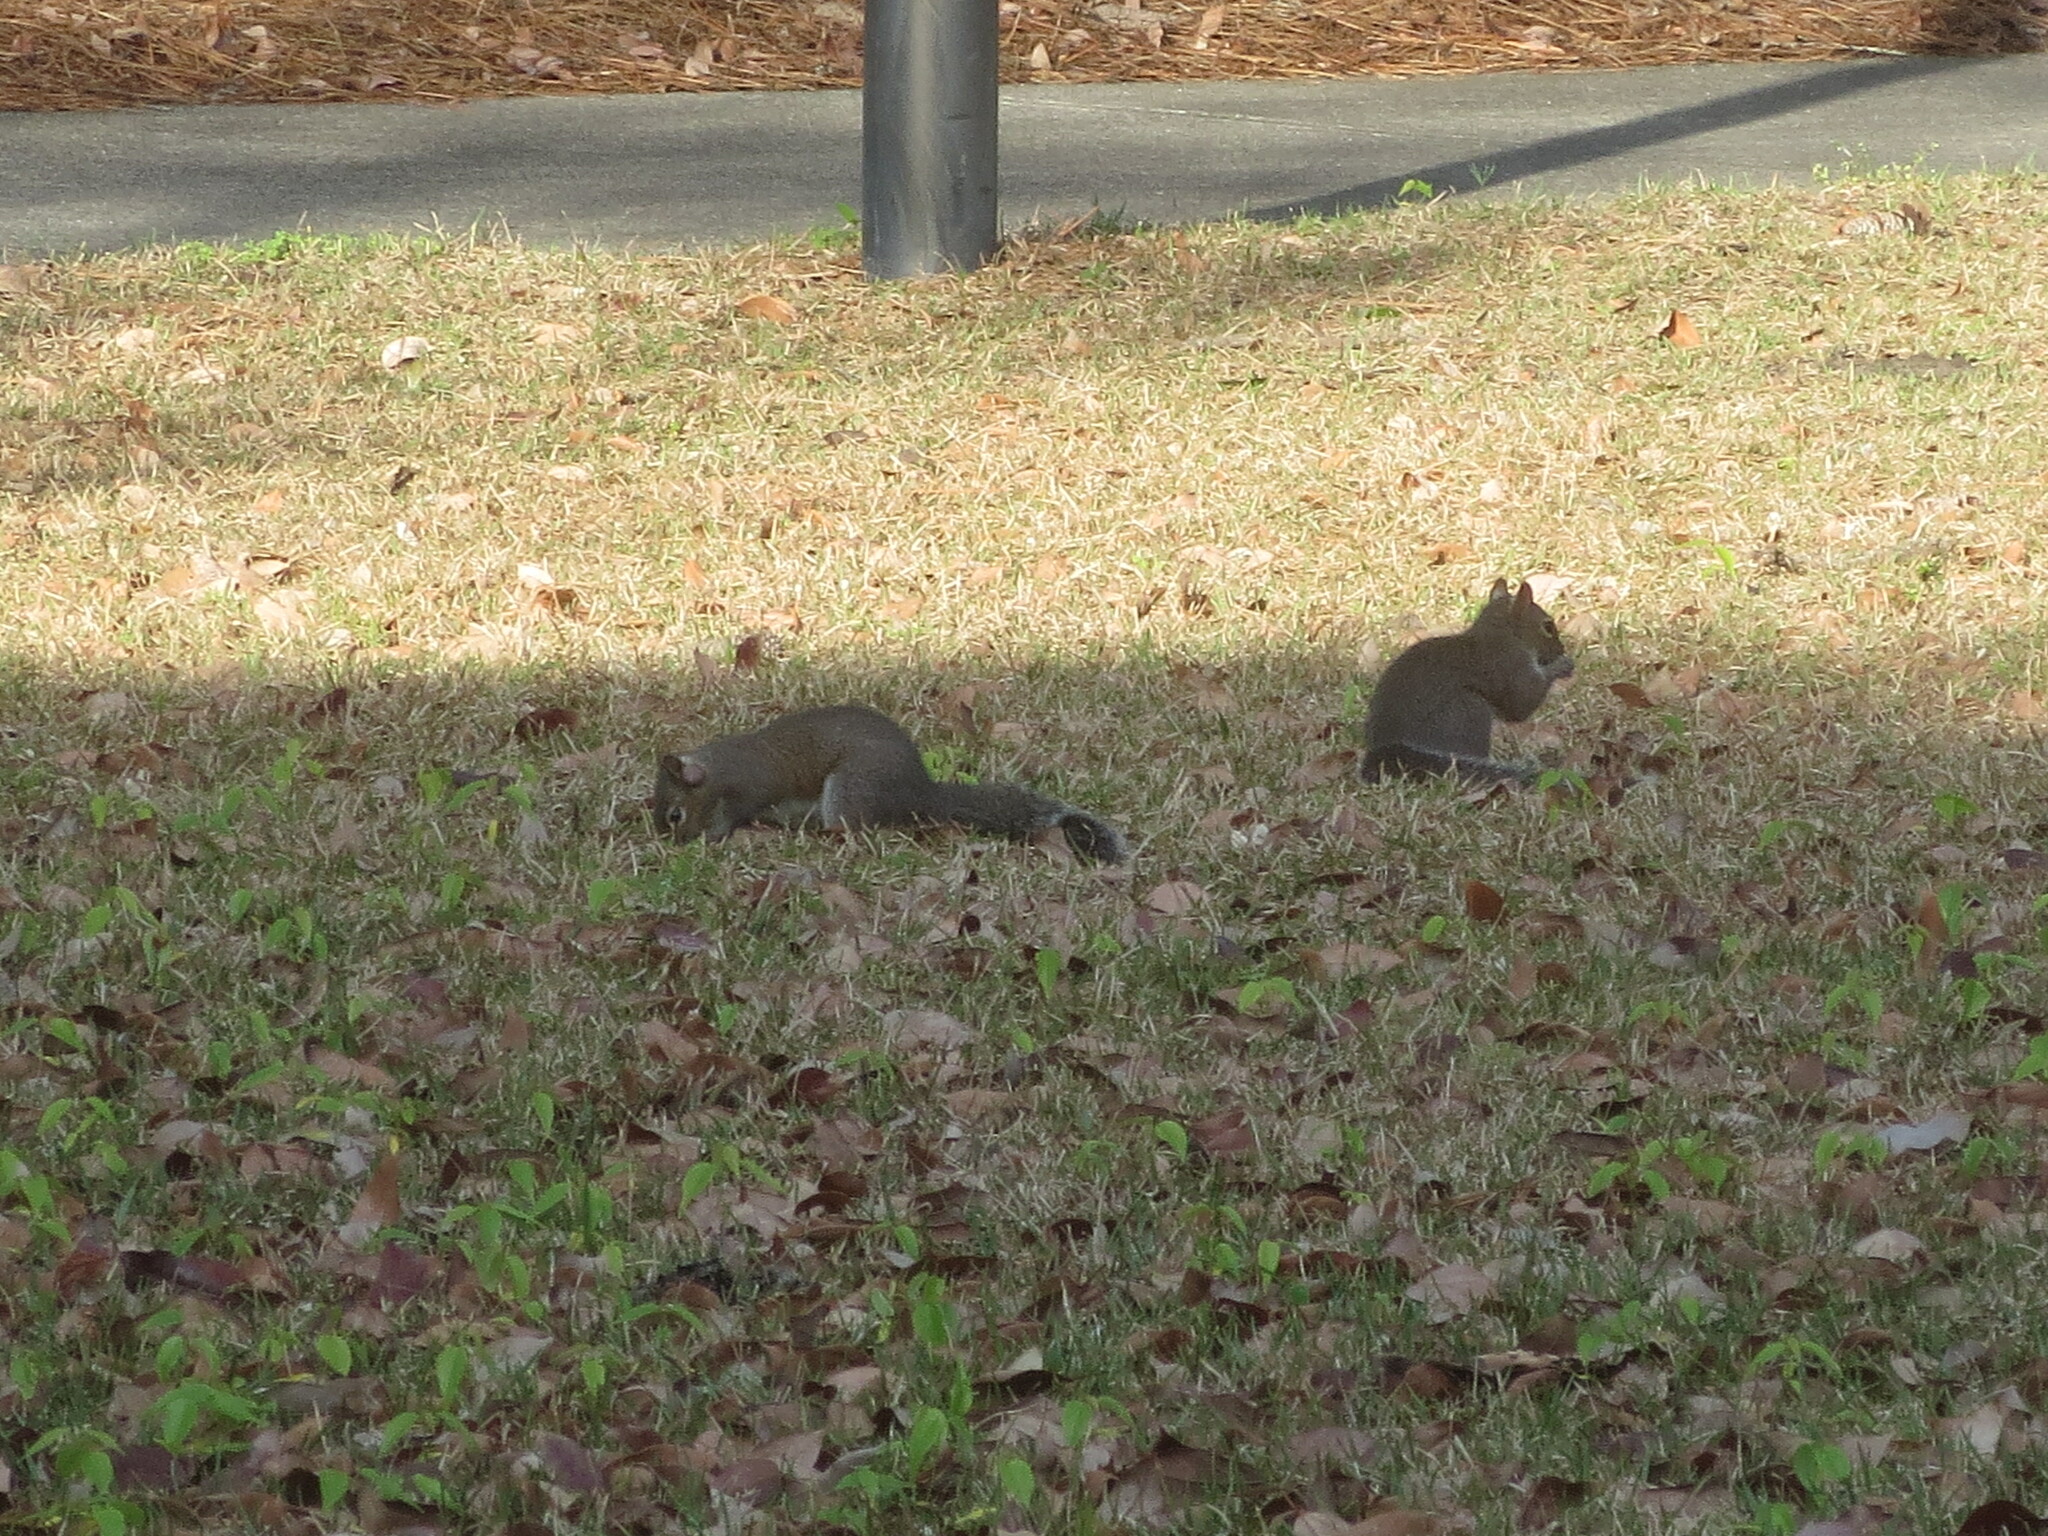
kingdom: Animalia
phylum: Chordata
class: Mammalia
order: Rodentia
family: Sciuridae
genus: Sciurus
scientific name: Sciurus carolinensis
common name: Eastern gray squirrel
